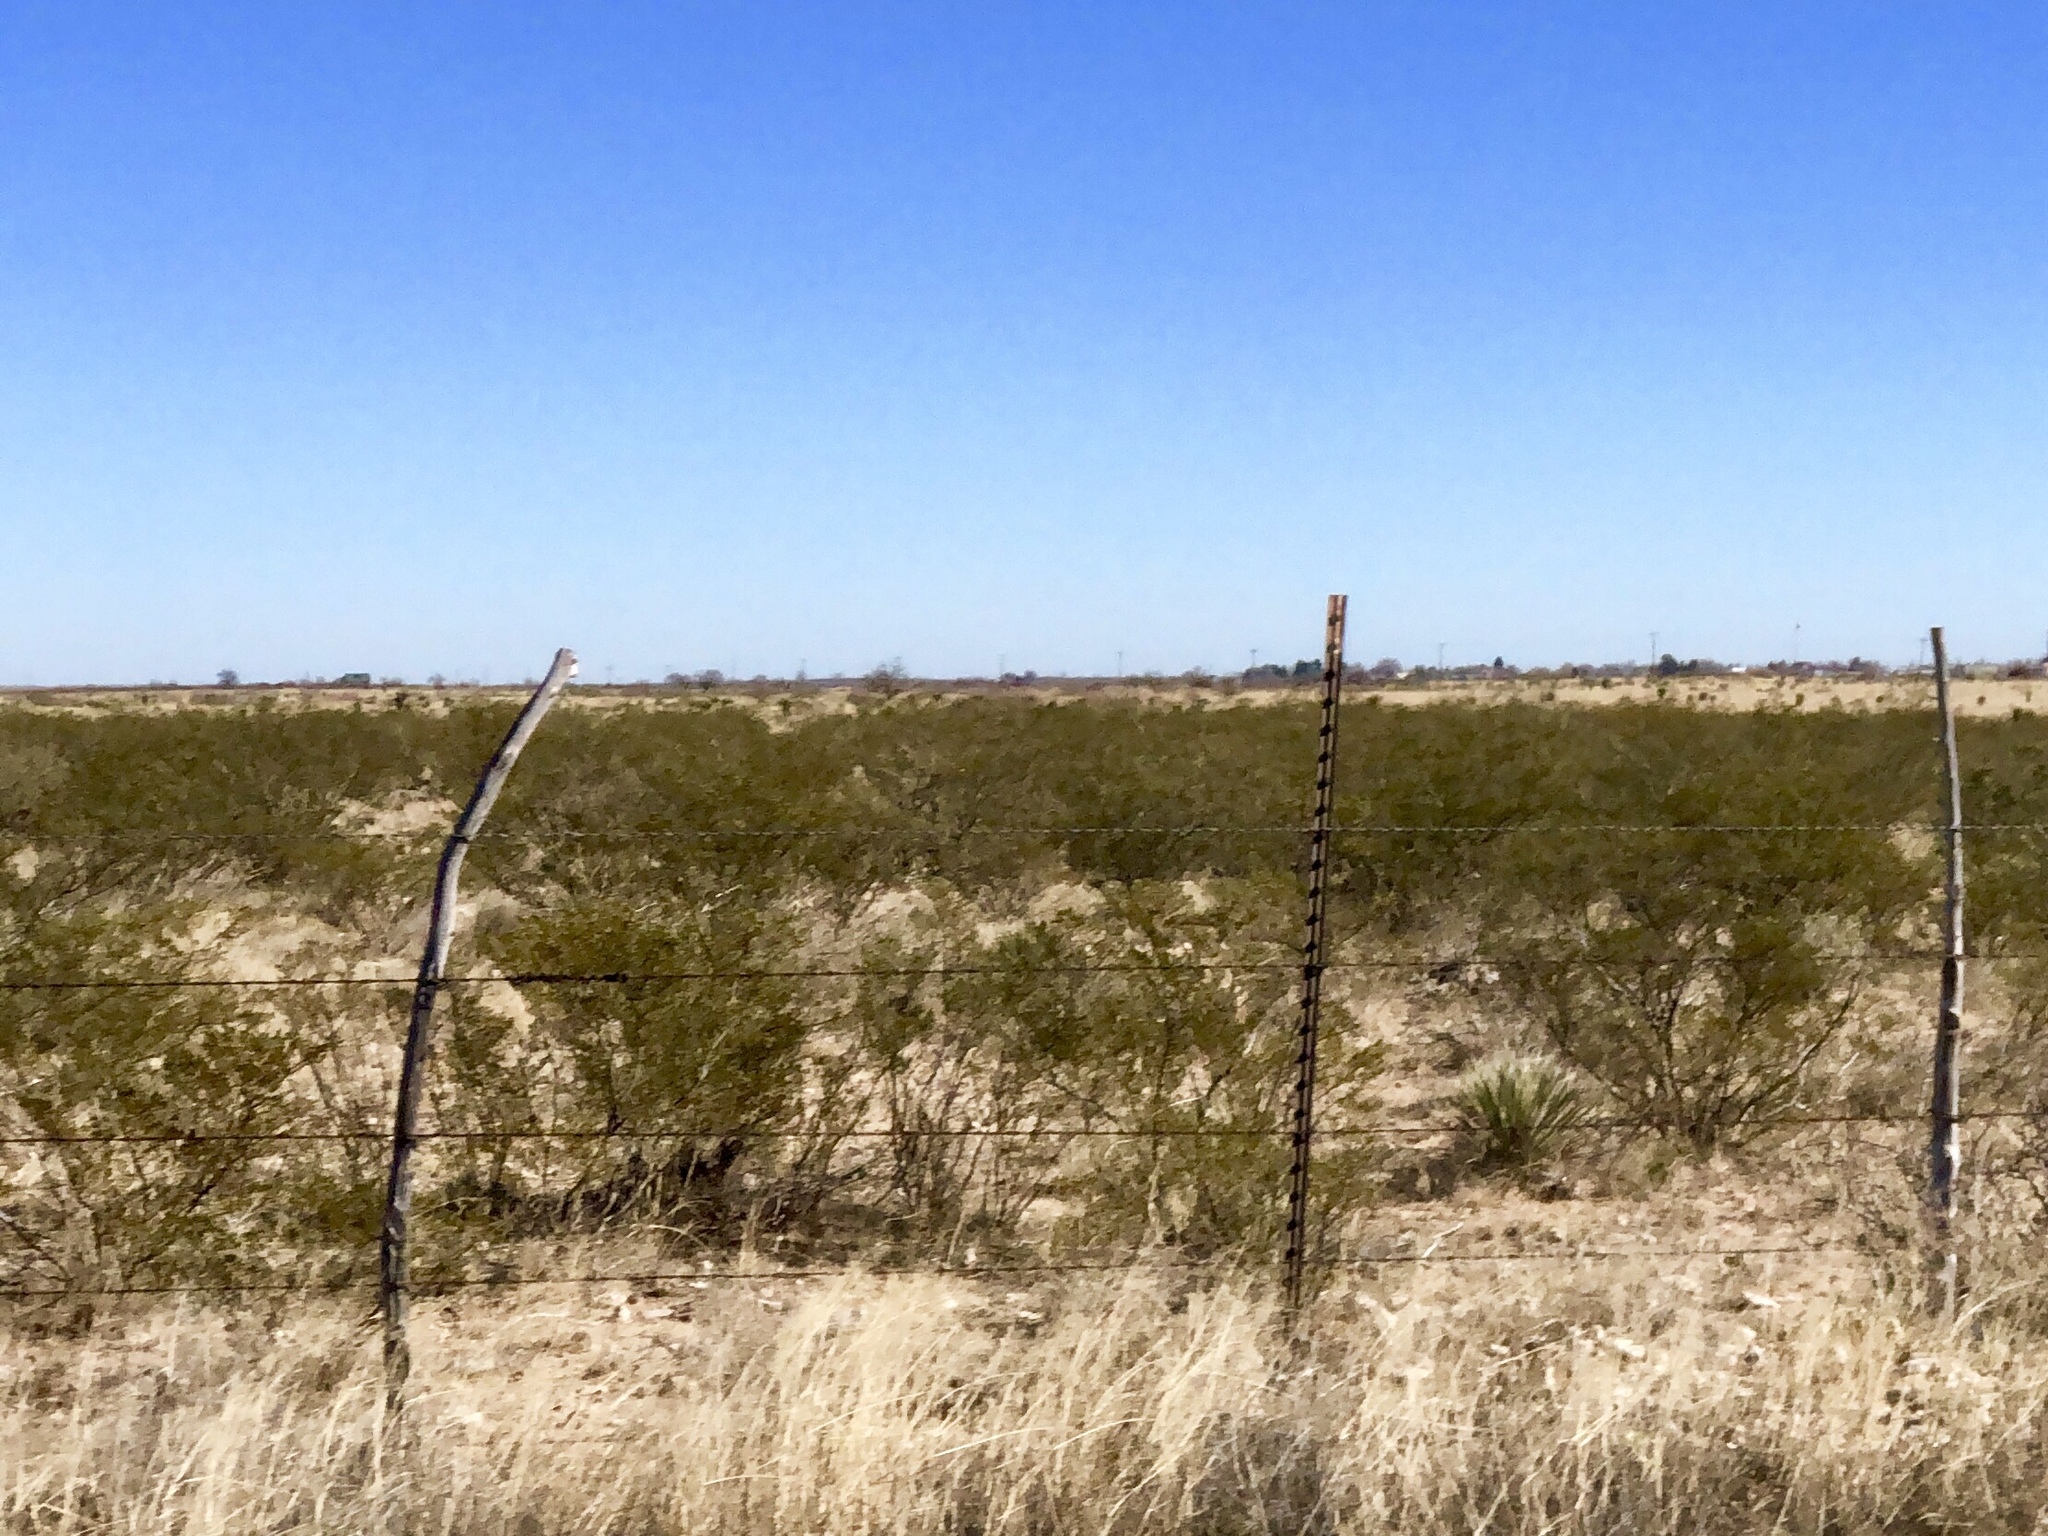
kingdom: Plantae
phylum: Tracheophyta
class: Magnoliopsida
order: Zygophyllales
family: Zygophyllaceae
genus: Larrea
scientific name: Larrea tridentata
